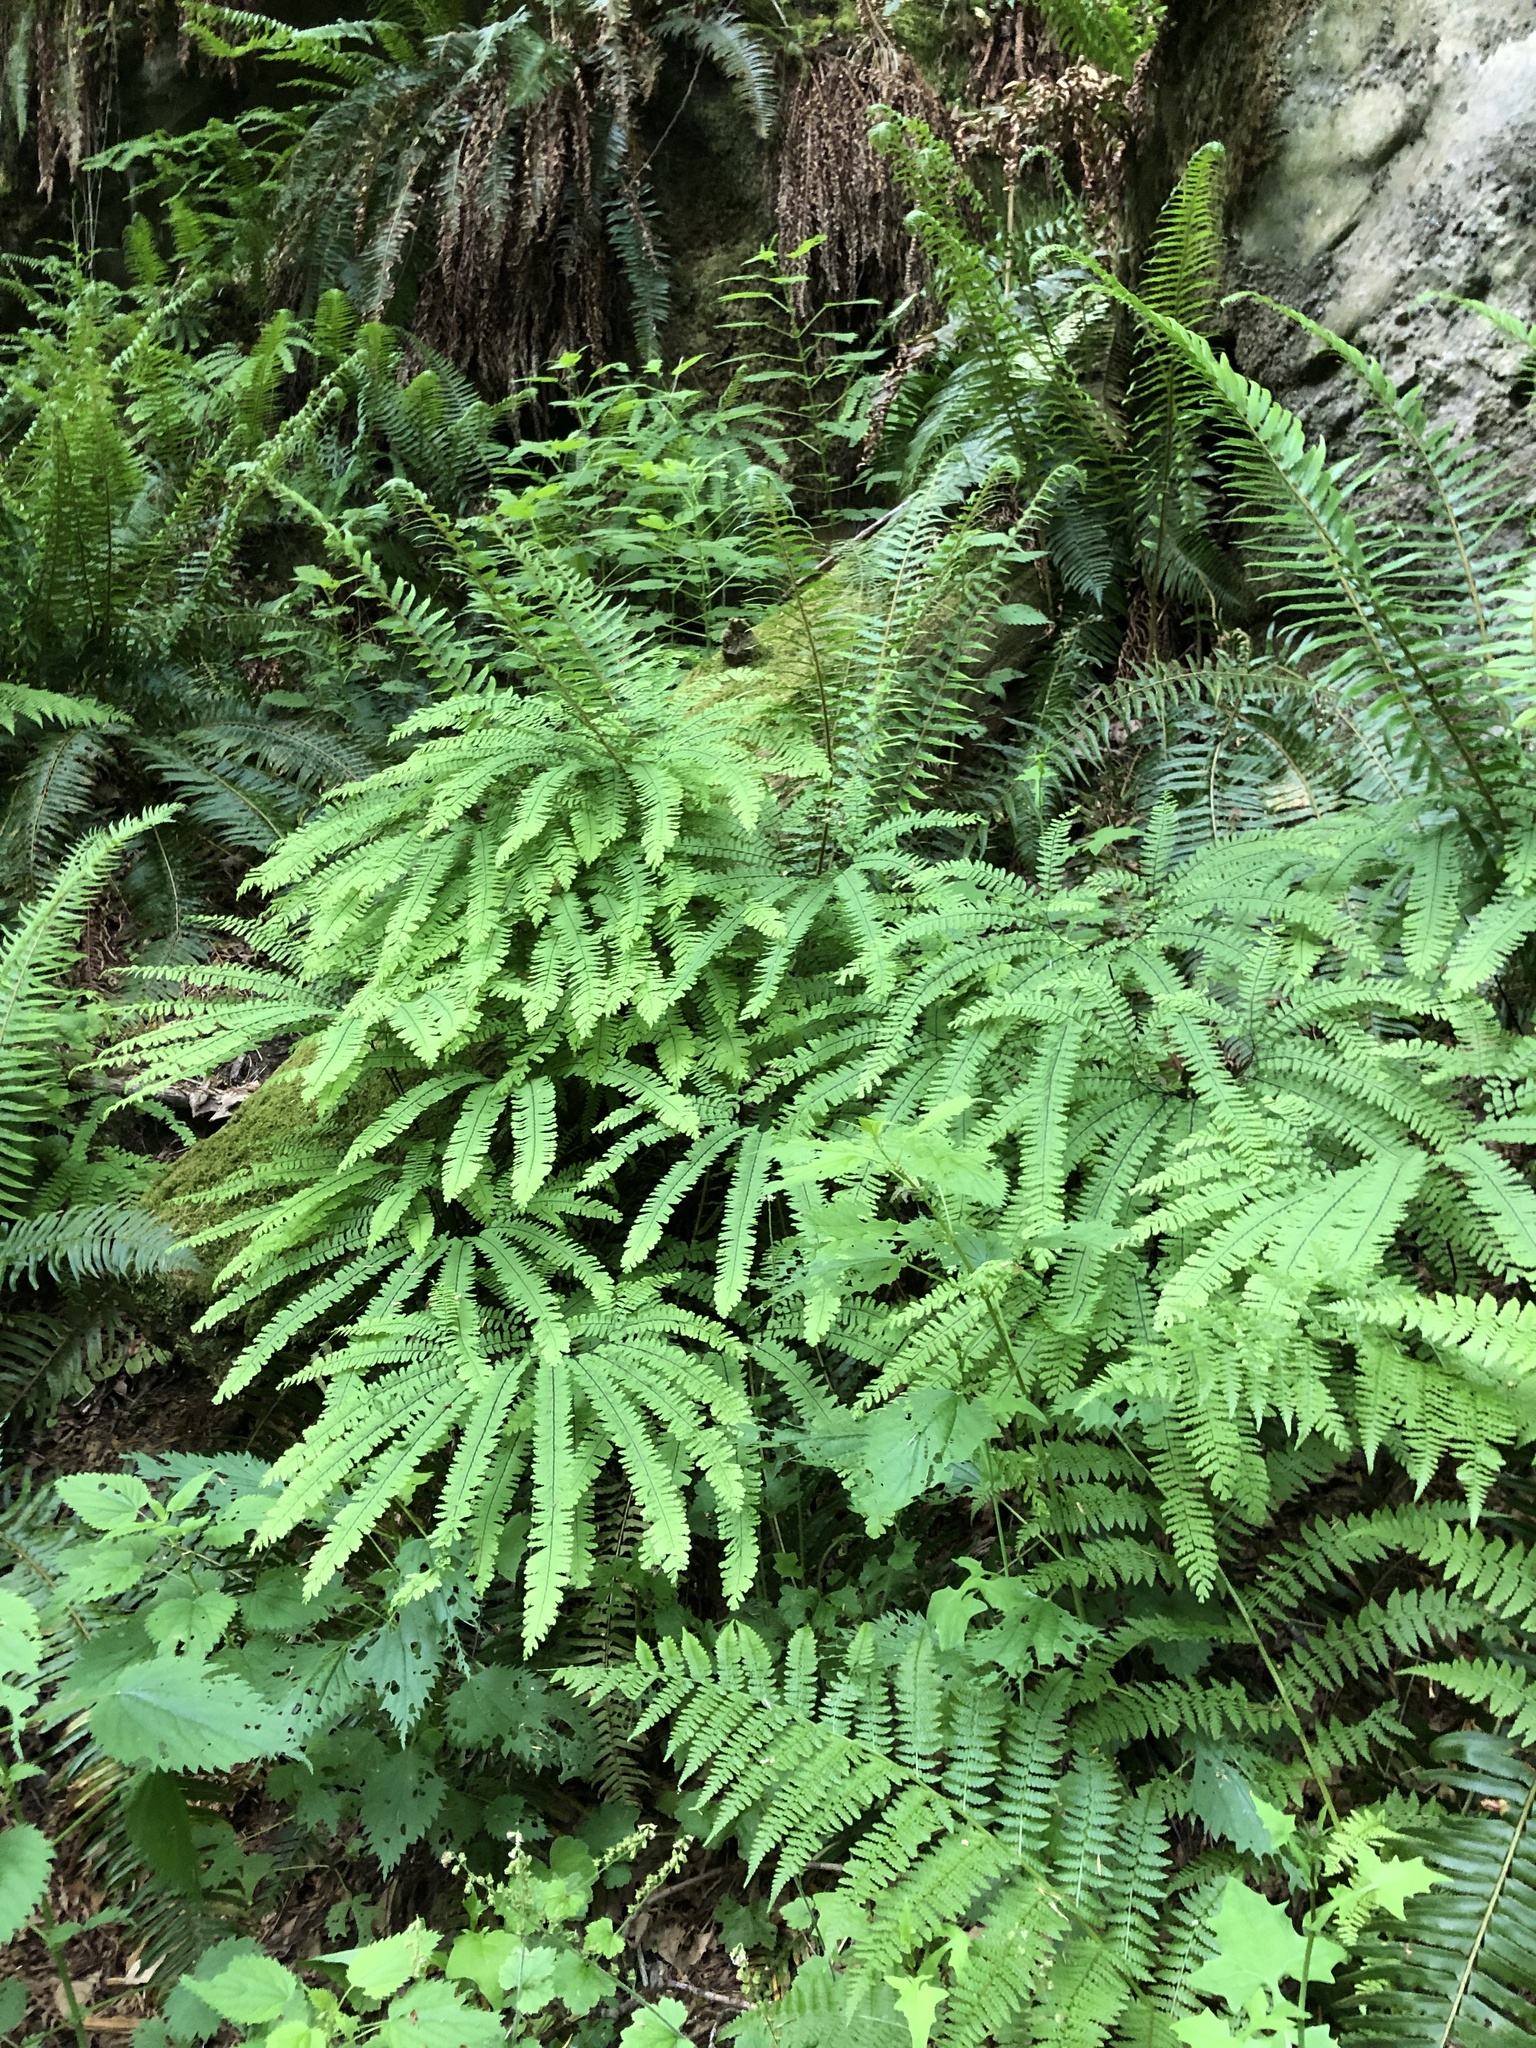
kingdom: Plantae
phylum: Tracheophyta
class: Polypodiopsida
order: Polypodiales
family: Pteridaceae
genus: Adiantum
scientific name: Adiantum aleuticum
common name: Aleutian maidenhair fern
